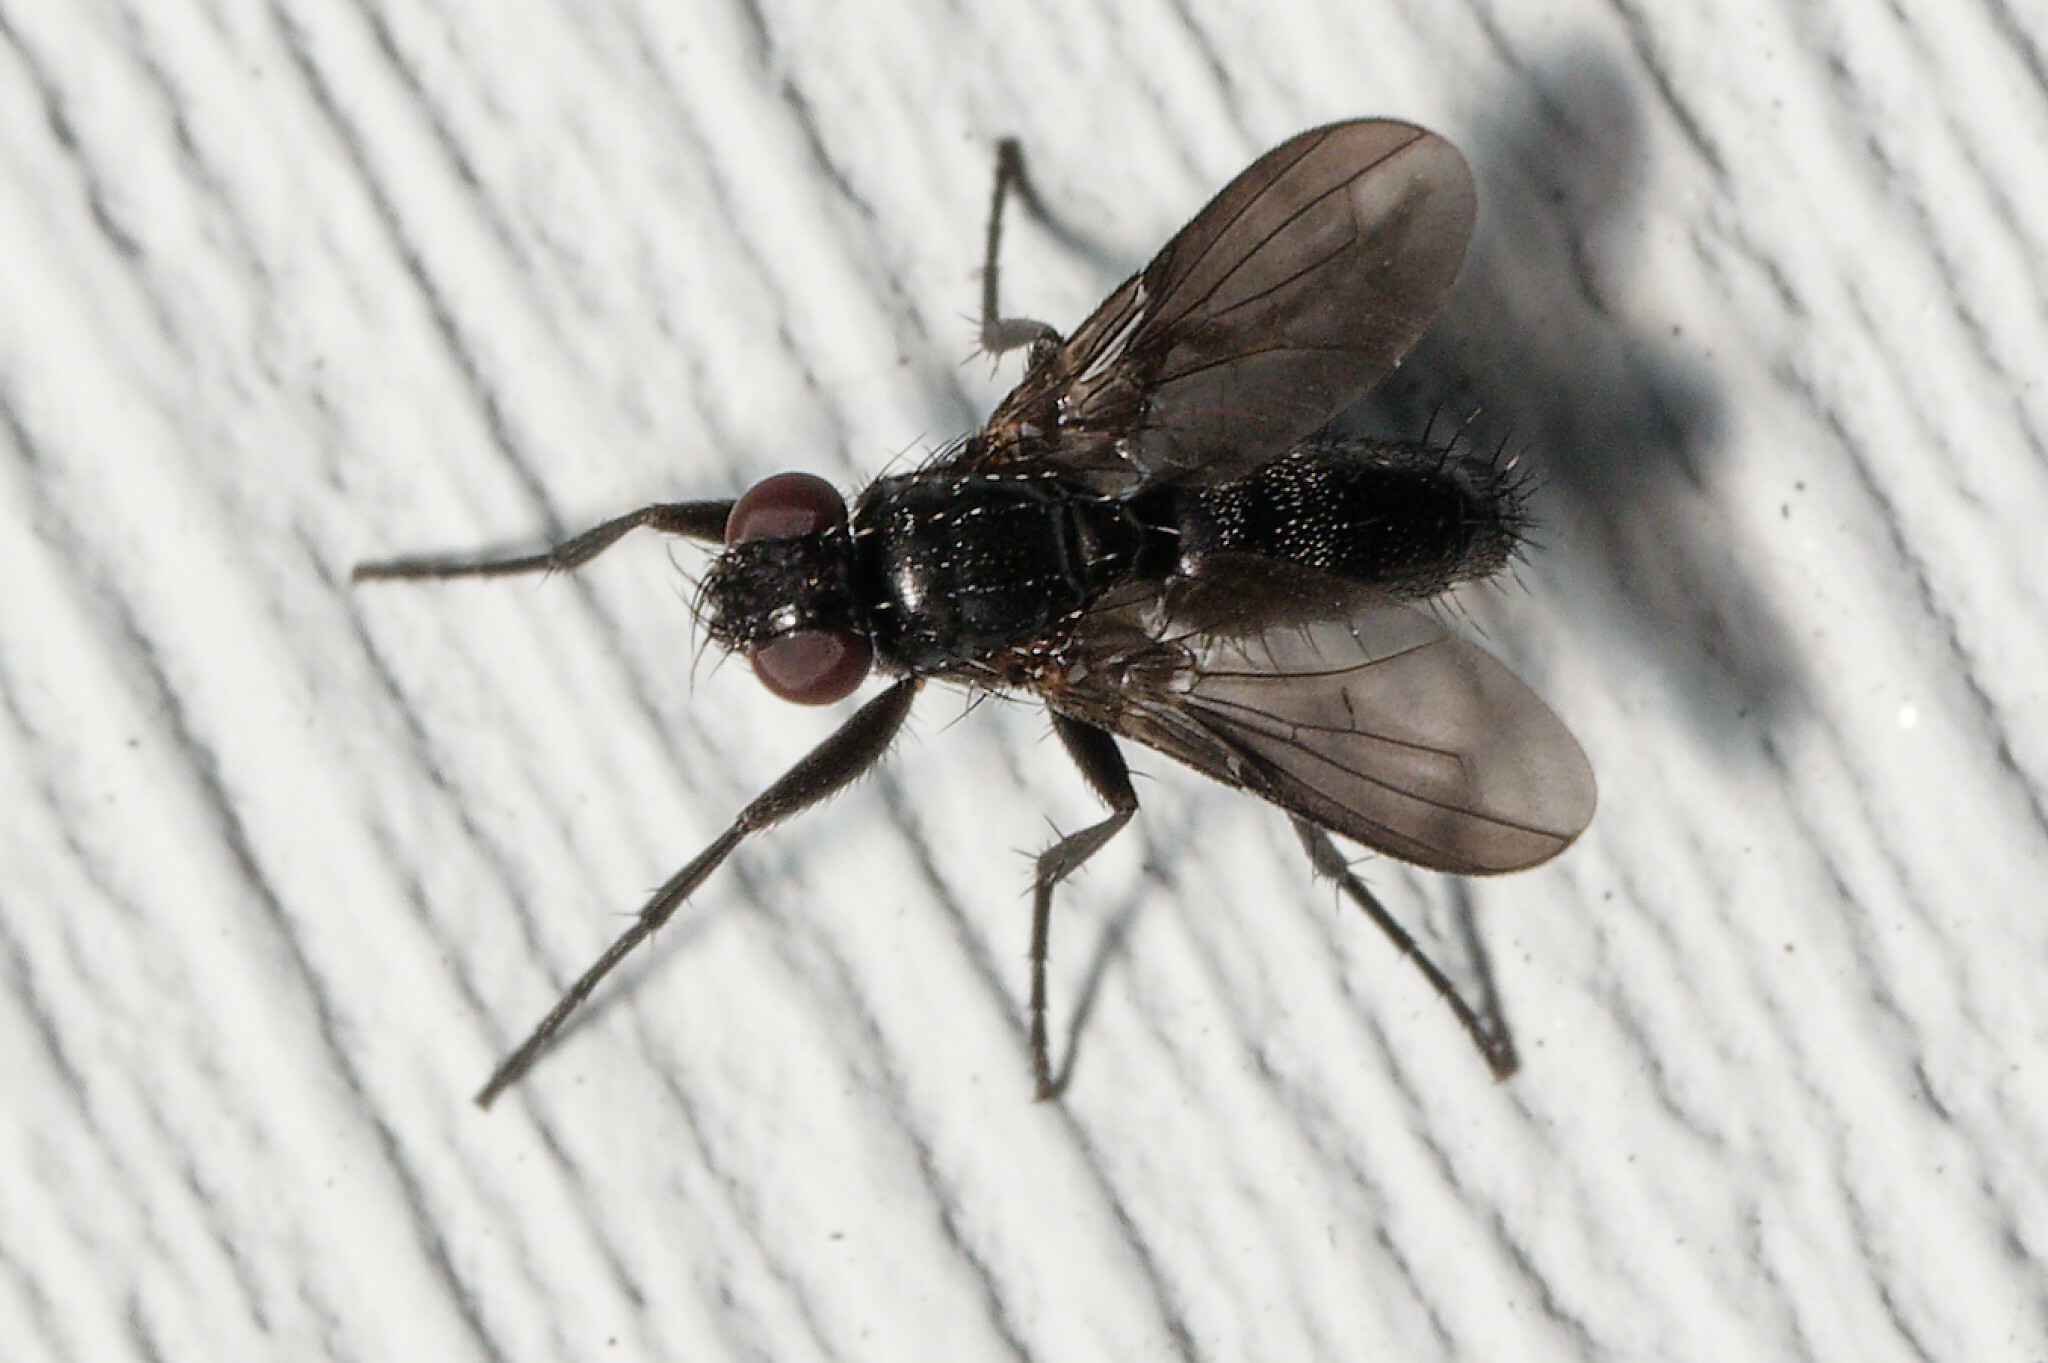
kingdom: Animalia
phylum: Arthropoda
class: Insecta
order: Diptera
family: Calliphoridae
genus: Melanophora
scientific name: Melanophora roralis
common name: Smoky-winged woodlouse-fly
